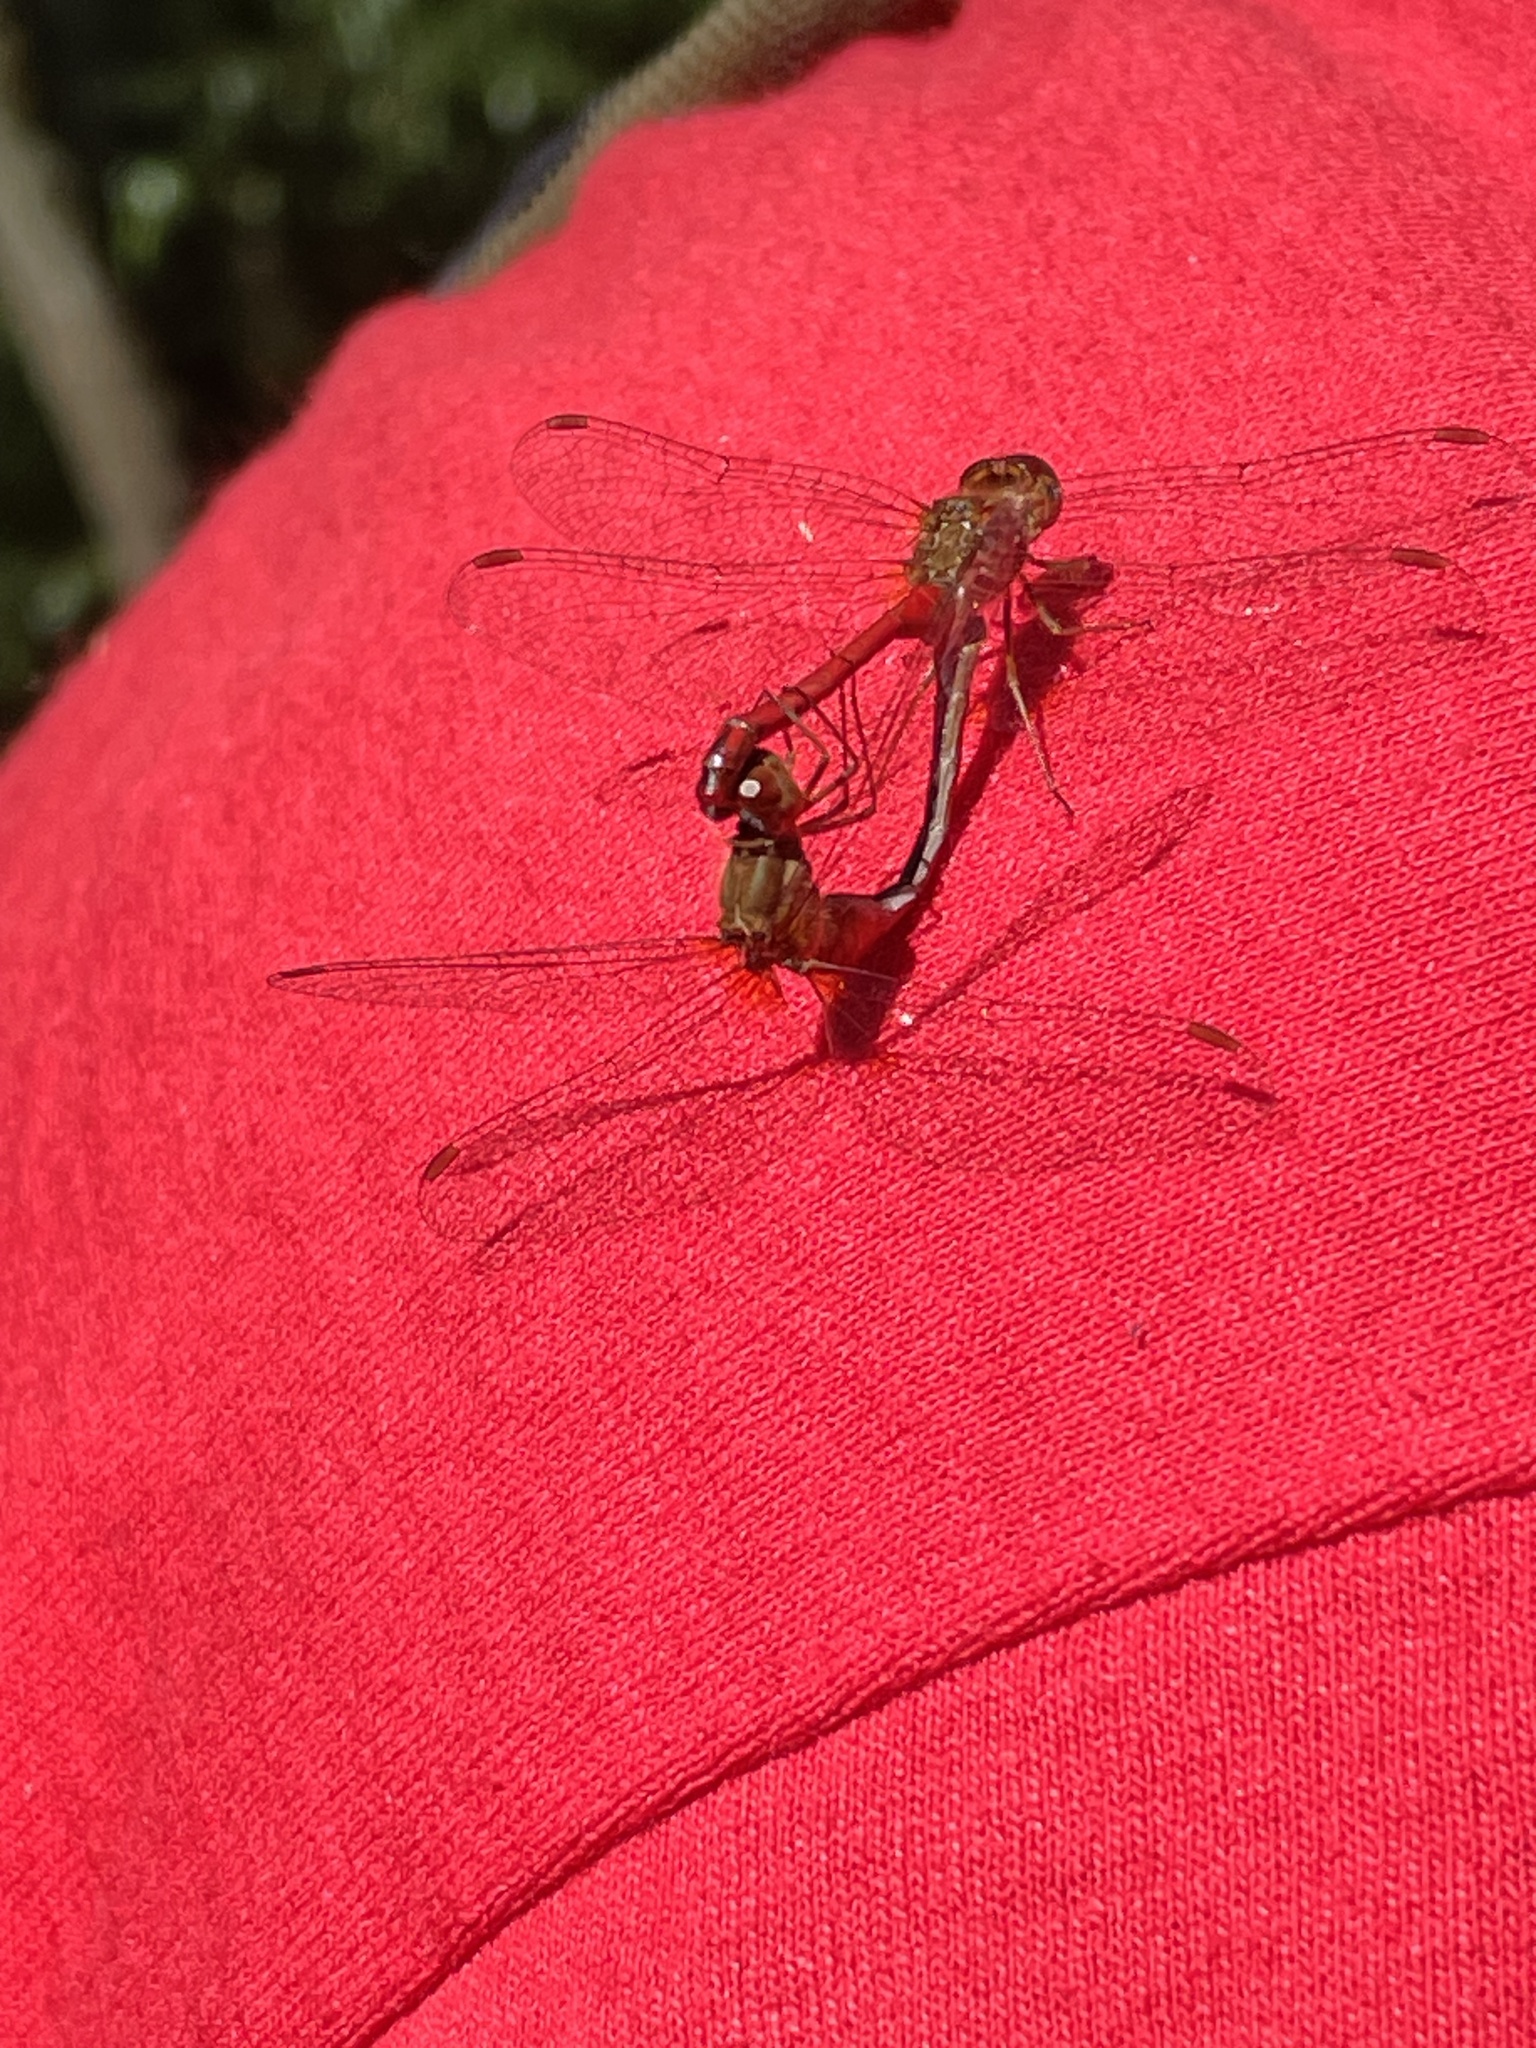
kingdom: Animalia
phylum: Arthropoda
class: Insecta
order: Odonata
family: Libellulidae
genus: Sympetrum
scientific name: Sympetrum vicinum
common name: Autumn meadowhawk
